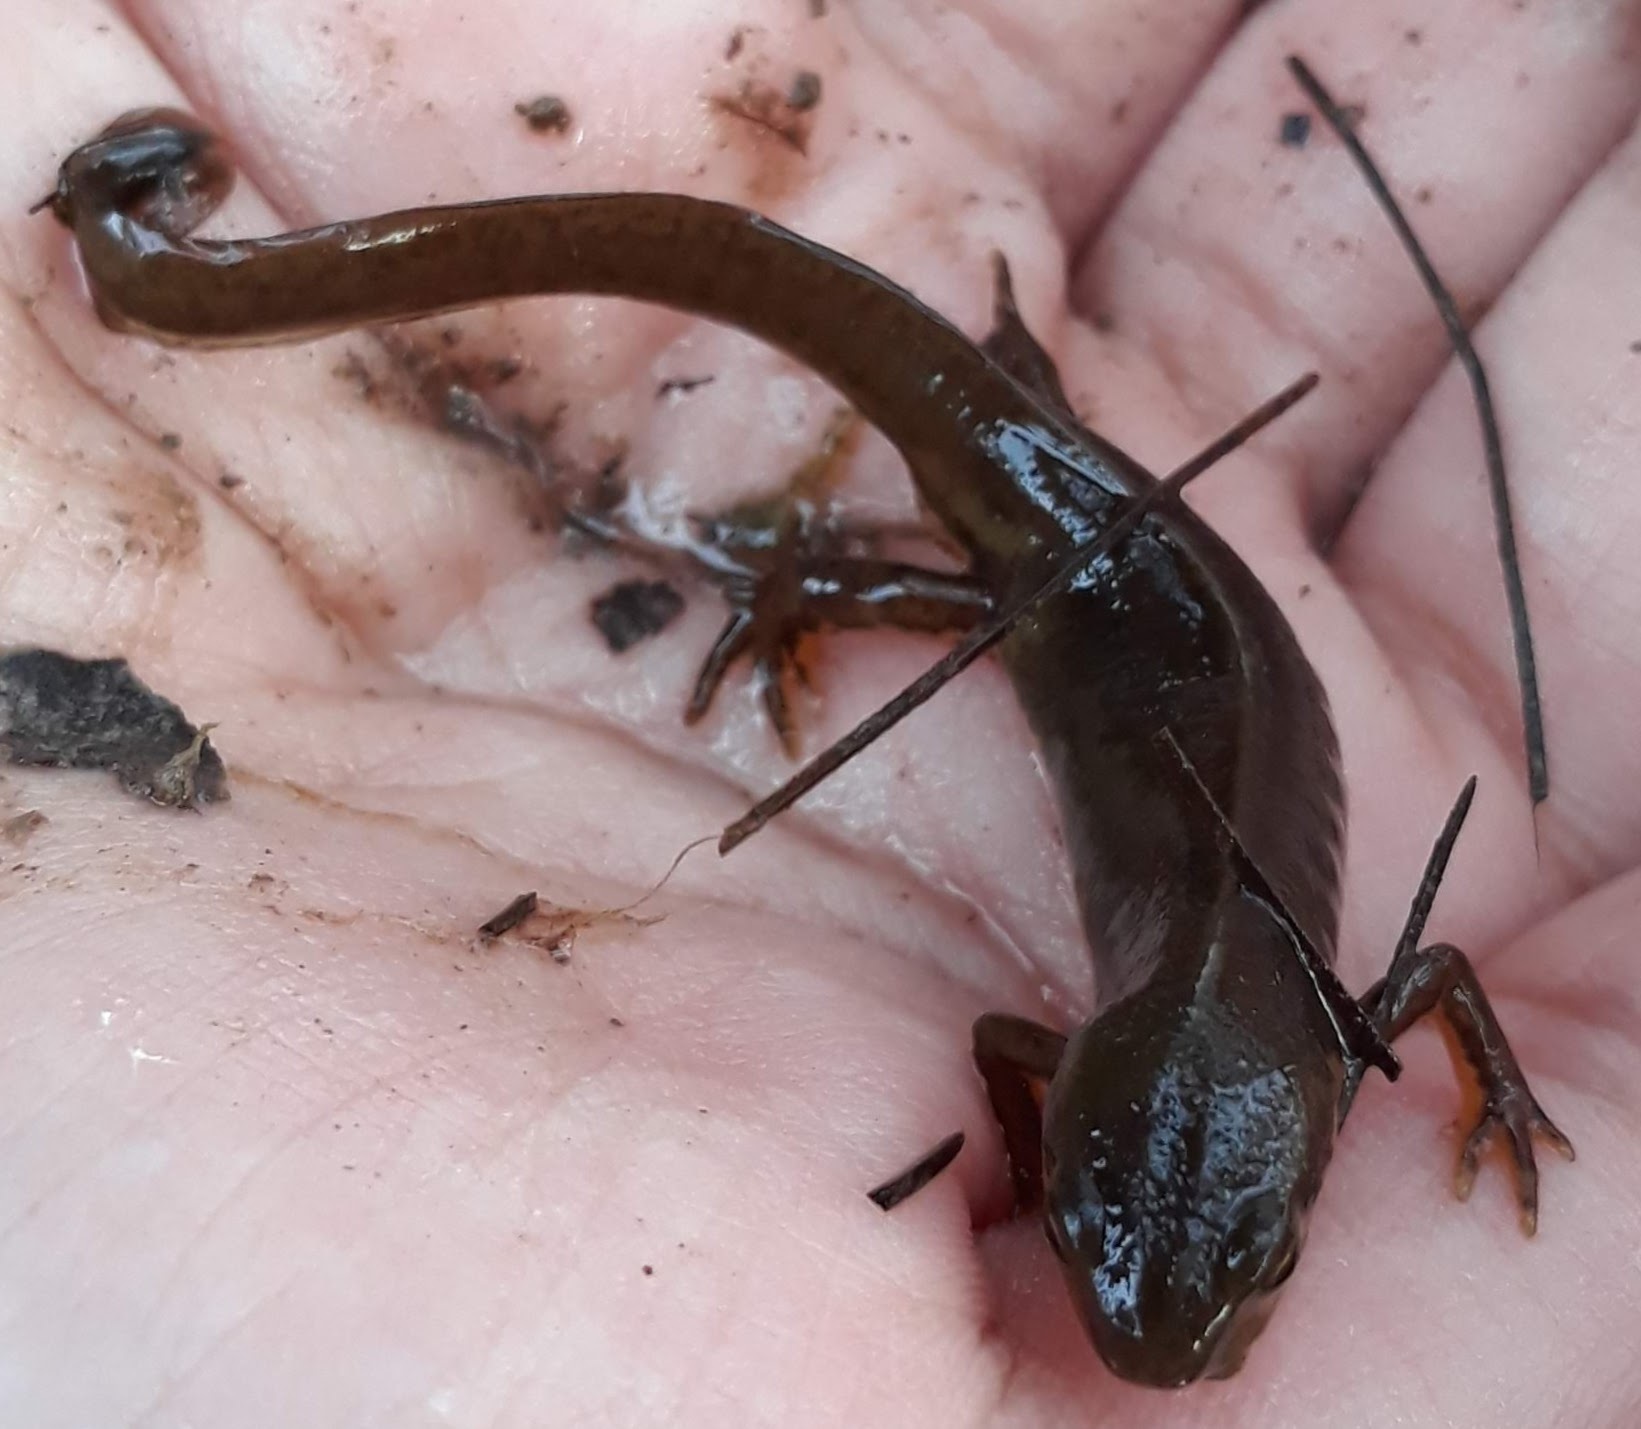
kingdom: Animalia
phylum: Chordata
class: Amphibia
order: Caudata
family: Salamandridae
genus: Notophthalmus
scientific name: Notophthalmus viridescens
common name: Eastern newt
